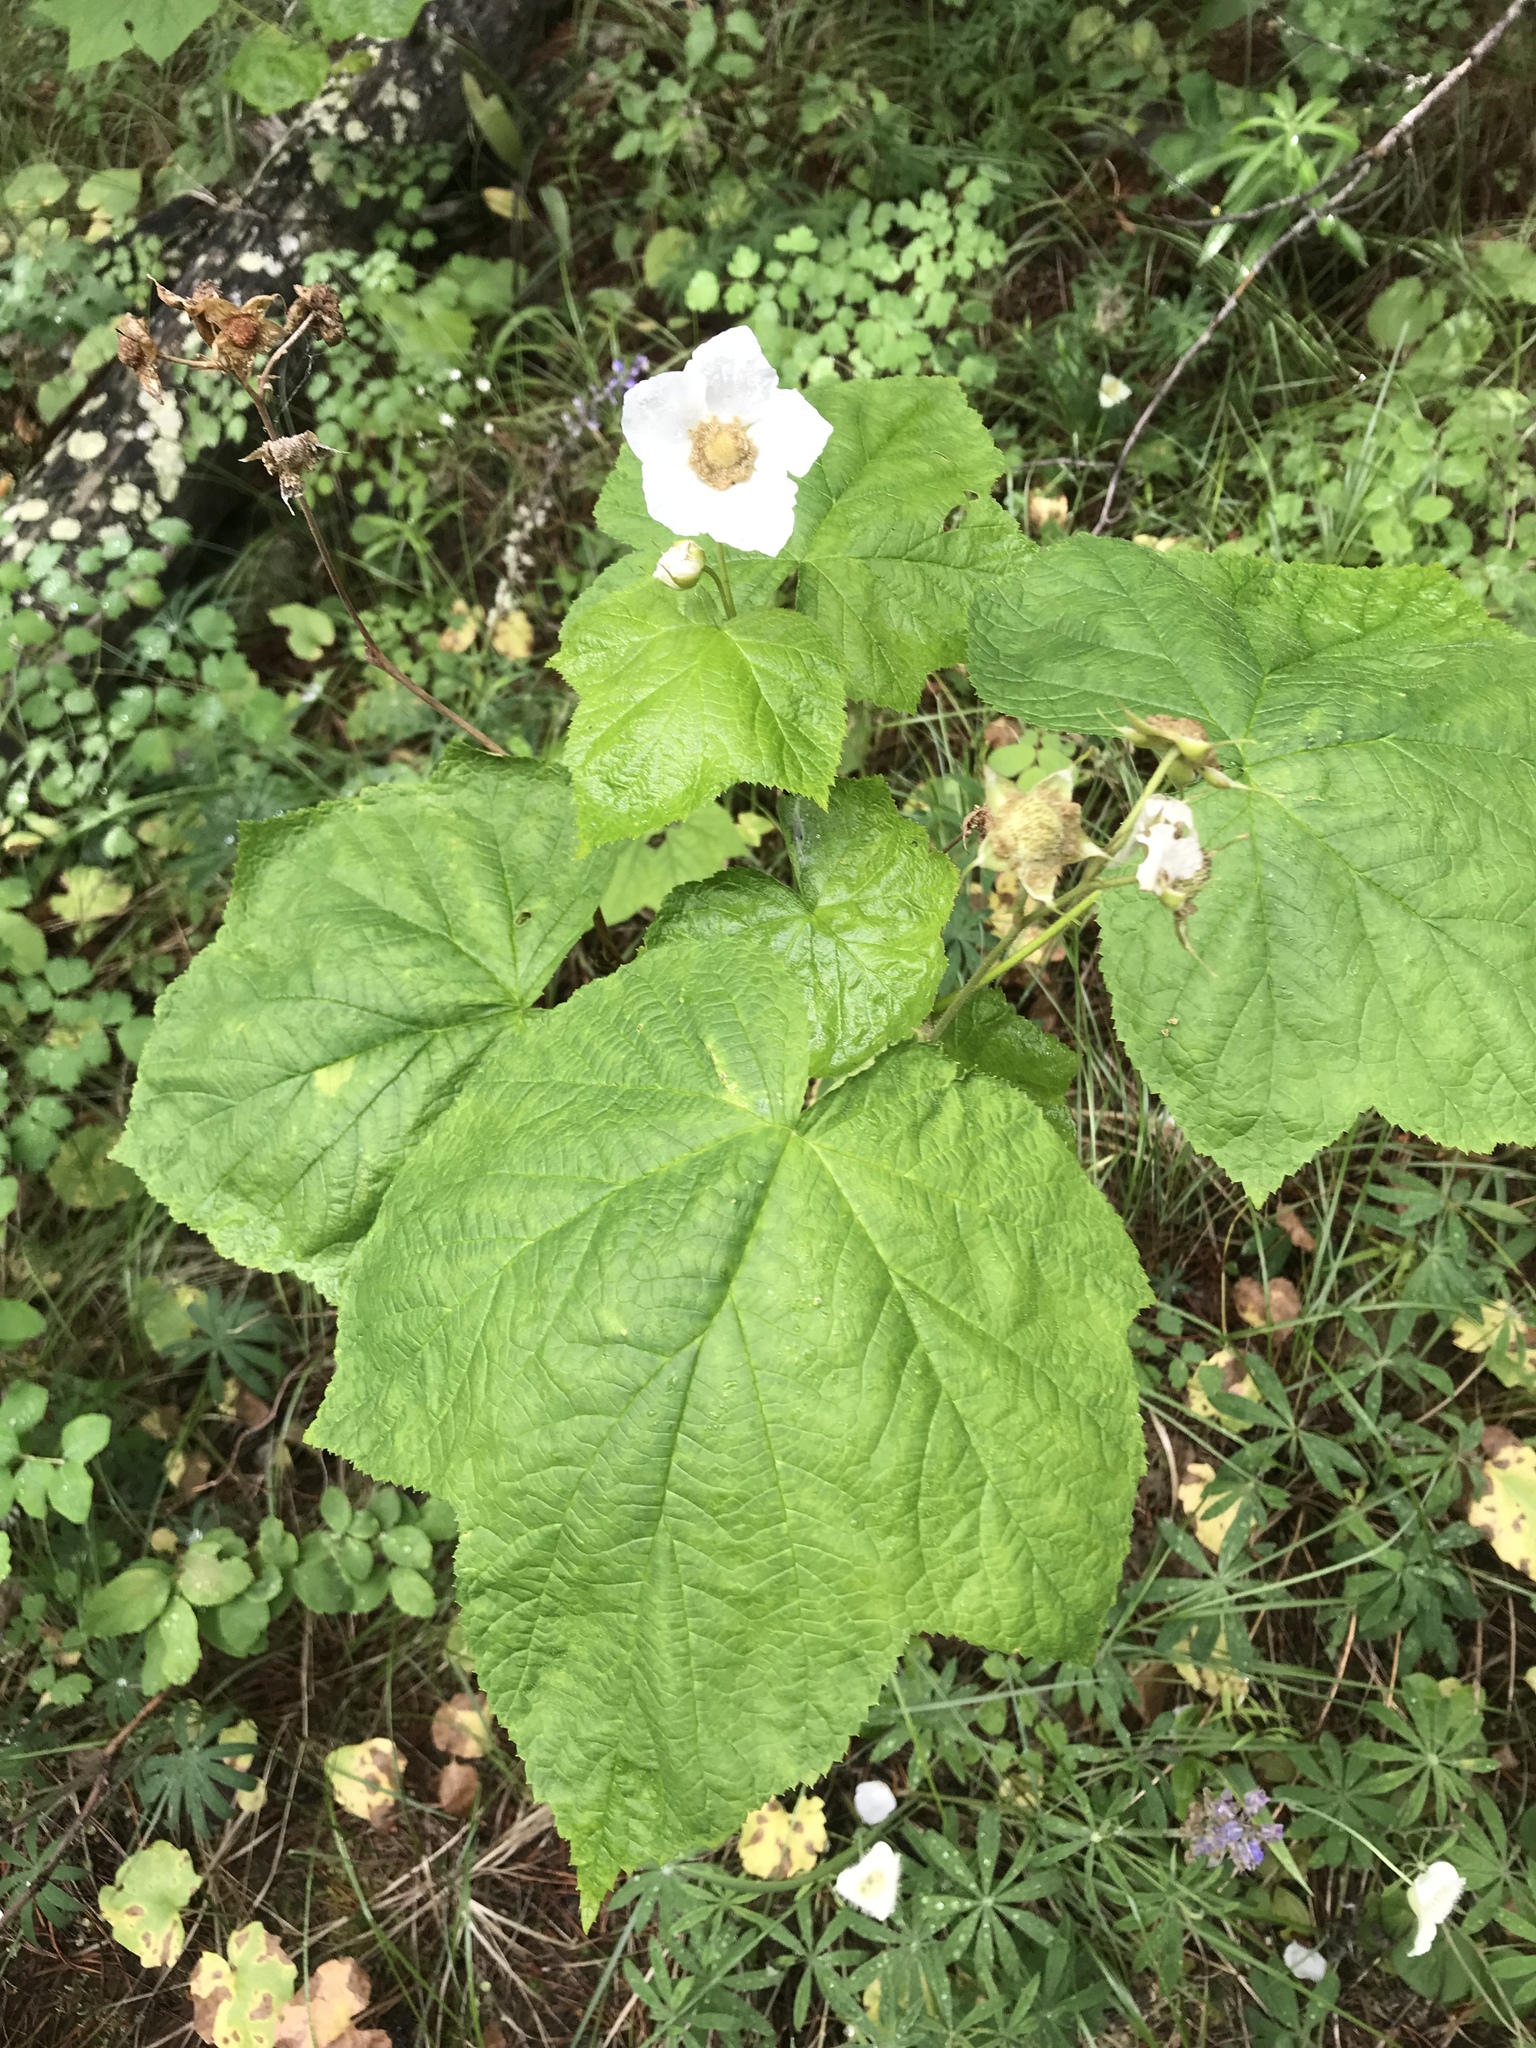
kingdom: Plantae
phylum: Tracheophyta
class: Magnoliopsida
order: Rosales
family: Rosaceae
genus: Rubus
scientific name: Rubus parviflorus
